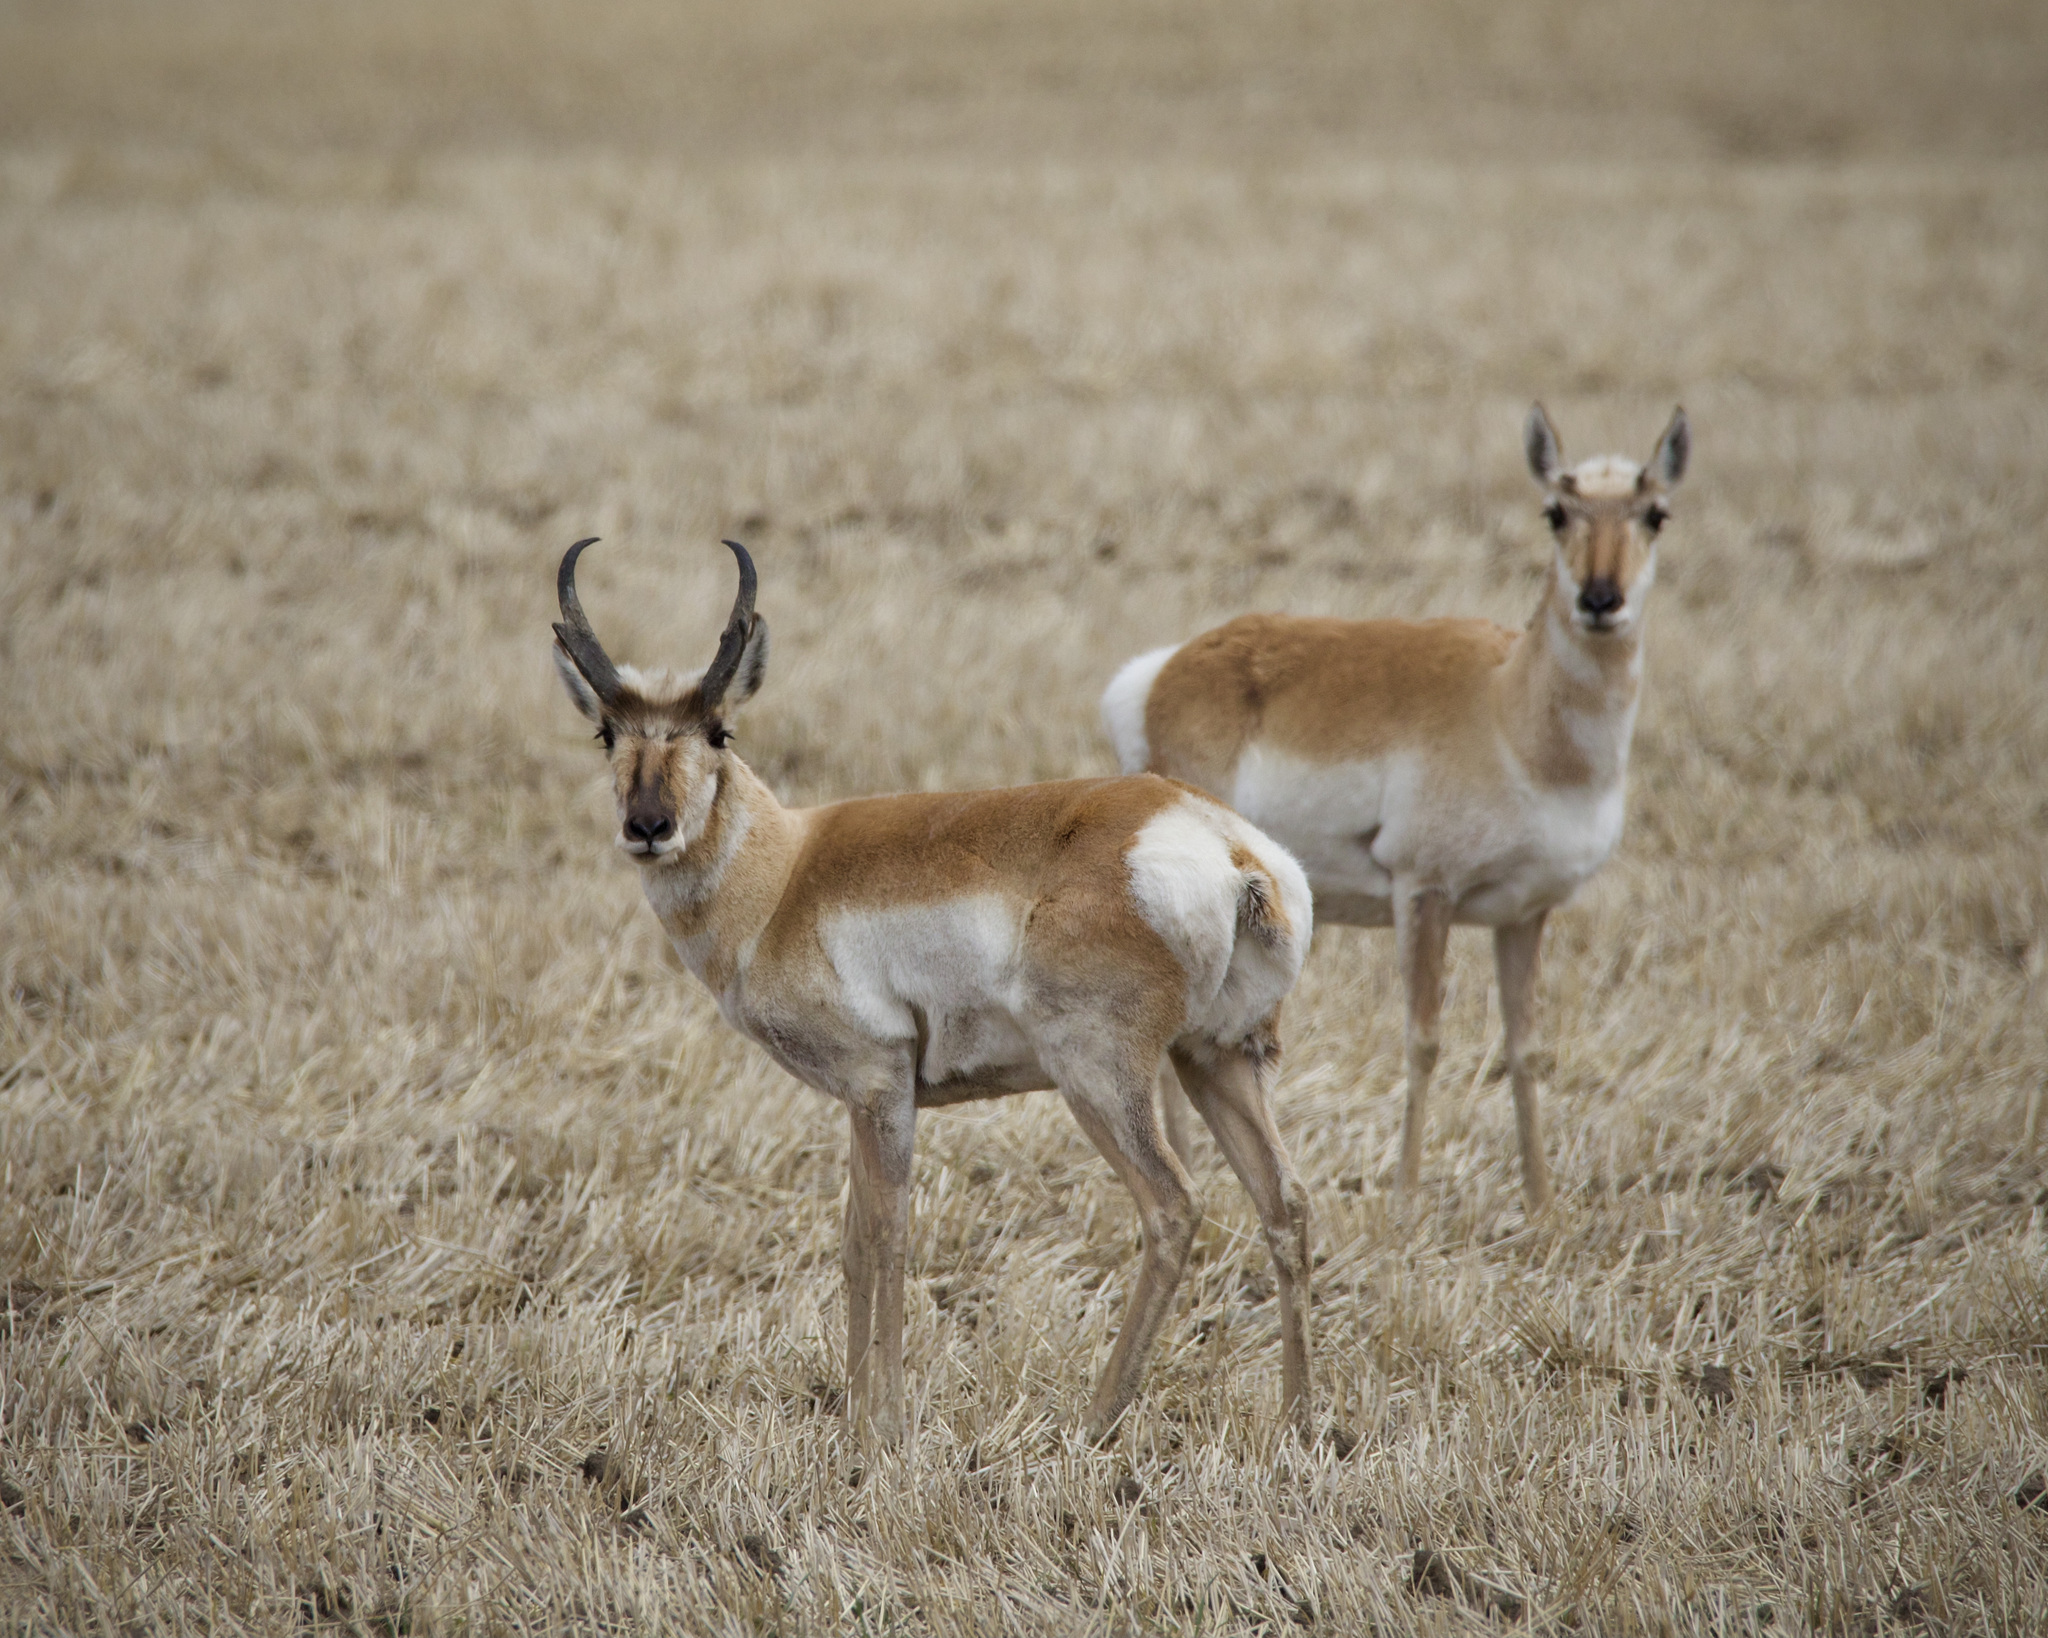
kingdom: Animalia
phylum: Chordata
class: Mammalia
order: Artiodactyla
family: Antilocapridae
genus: Antilocapra
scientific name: Antilocapra americana
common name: Pronghorn
